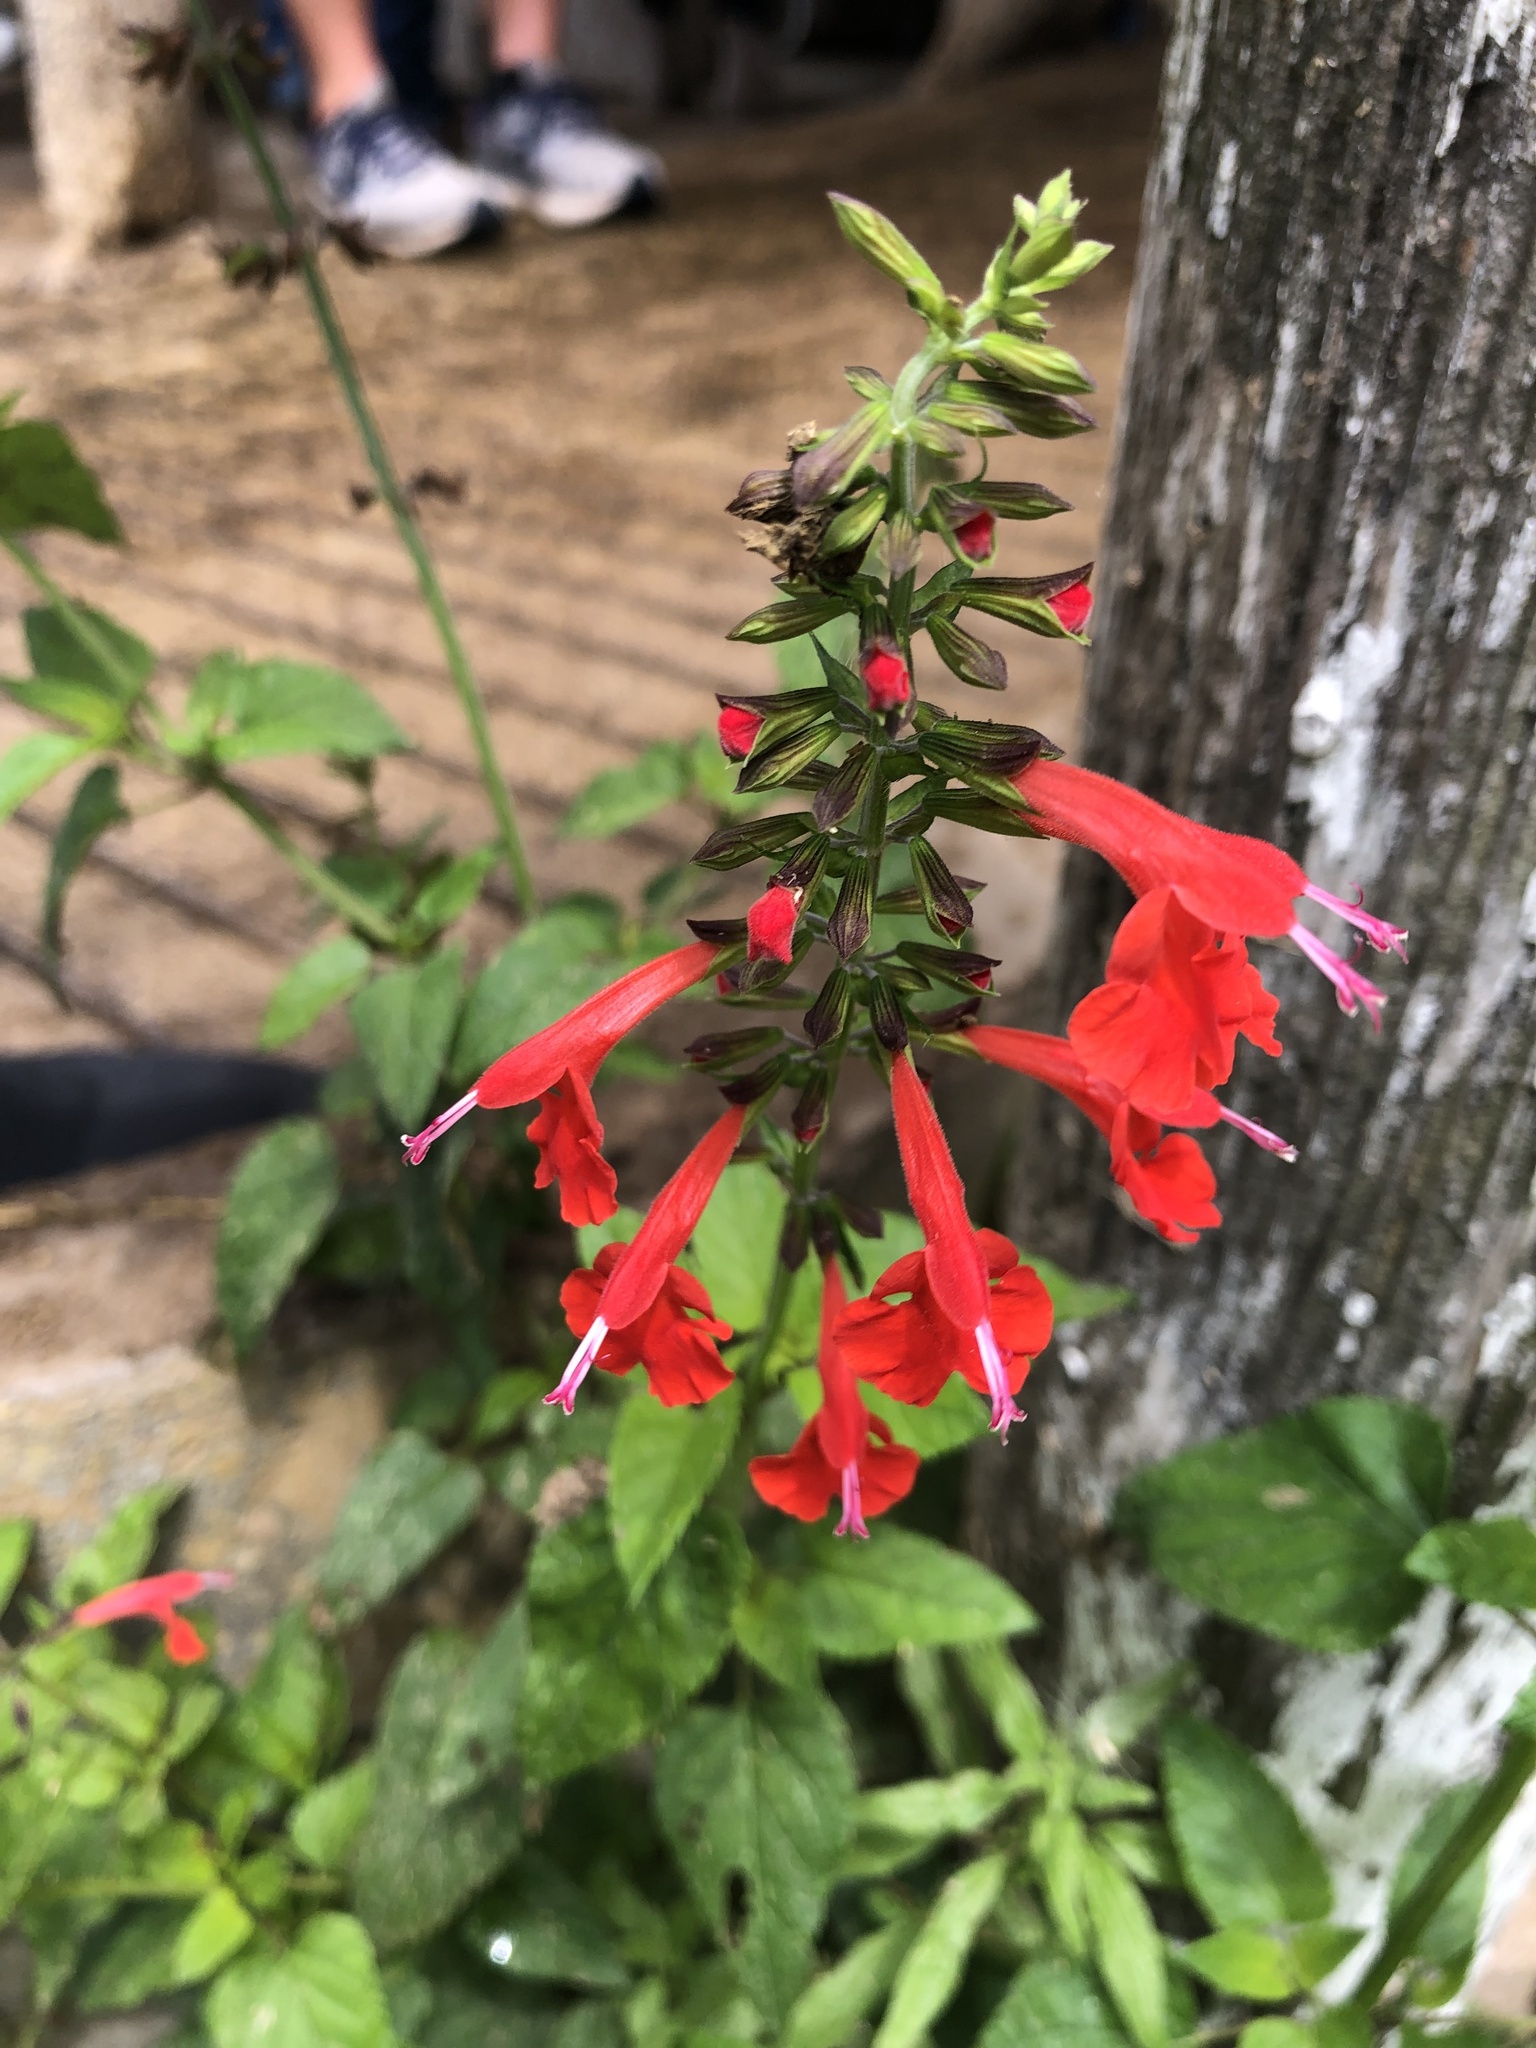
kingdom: Plantae
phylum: Tracheophyta
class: Magnoliopsida
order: Lamiales
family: Lamiaceae
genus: Salvia
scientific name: Salvia coccinea
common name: Blood sage
